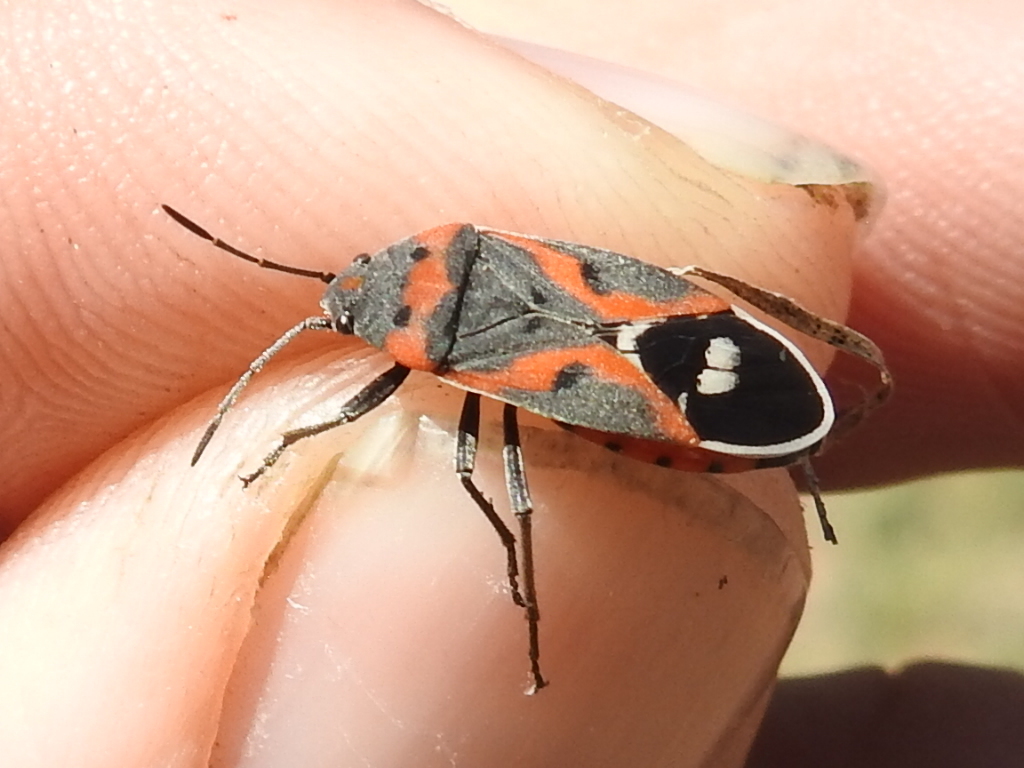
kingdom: Animalia
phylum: Arthropoda
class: Insecta
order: Hemiptera
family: Lygaeidae
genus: Lygaeus
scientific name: Lygaeus kalmii
